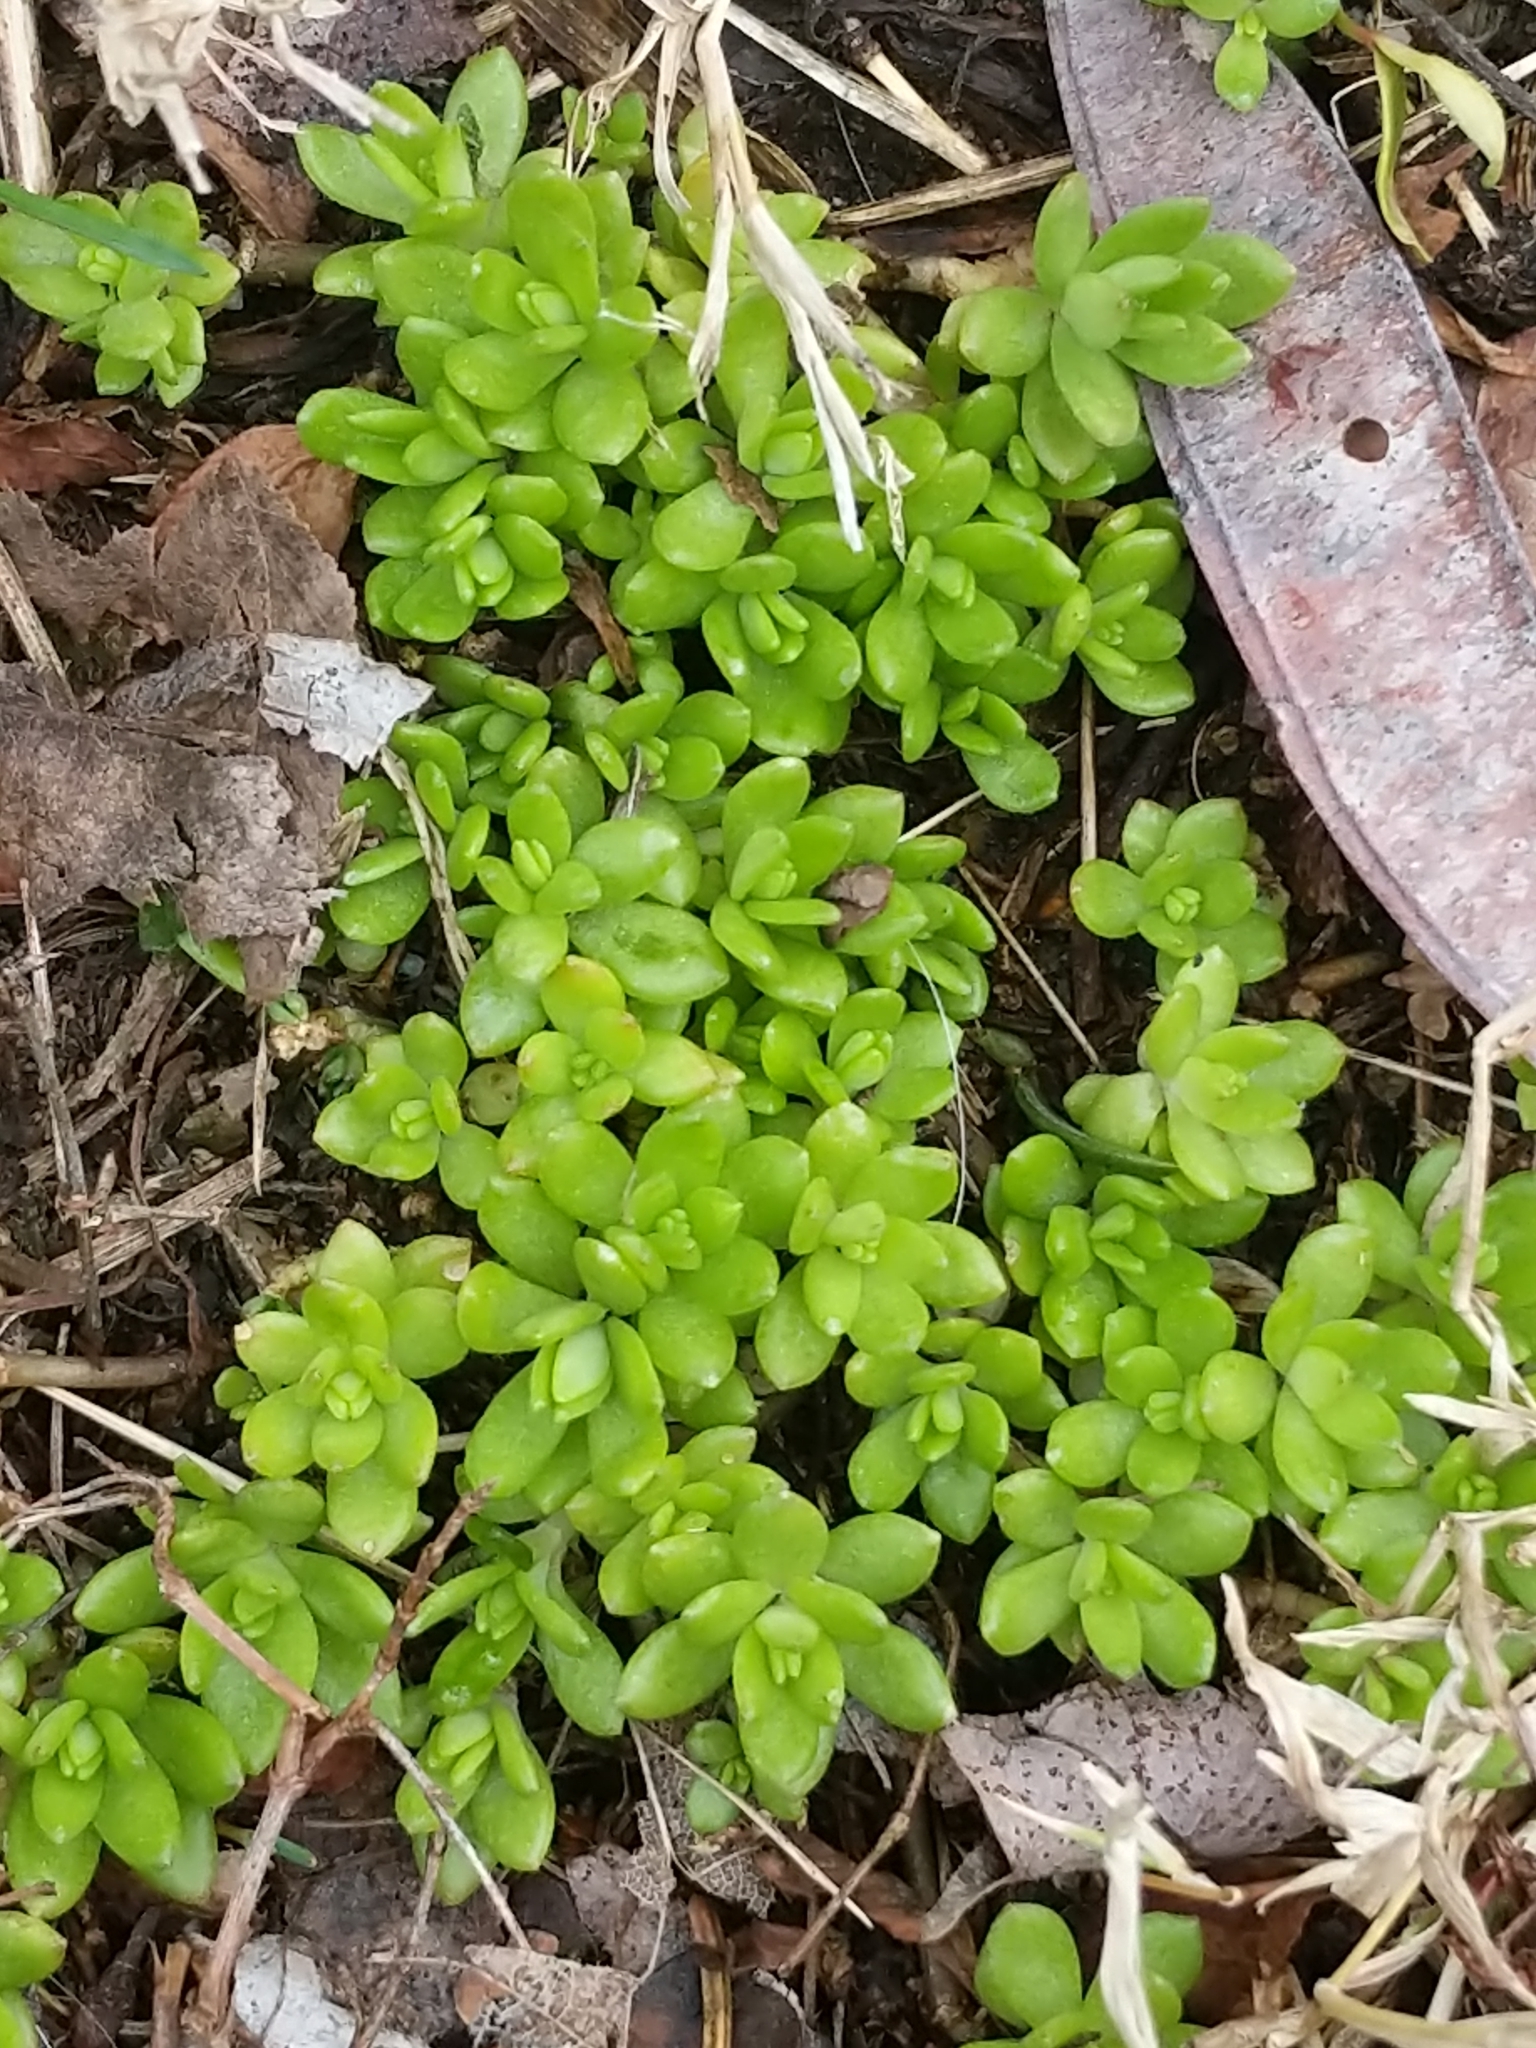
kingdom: Plantae
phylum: Tracheophyta
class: Magnoliopsida
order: Saxifragales
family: Crassulaceae
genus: Sedum
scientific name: Sedum sarmentosum
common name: Stringy stonecrop
